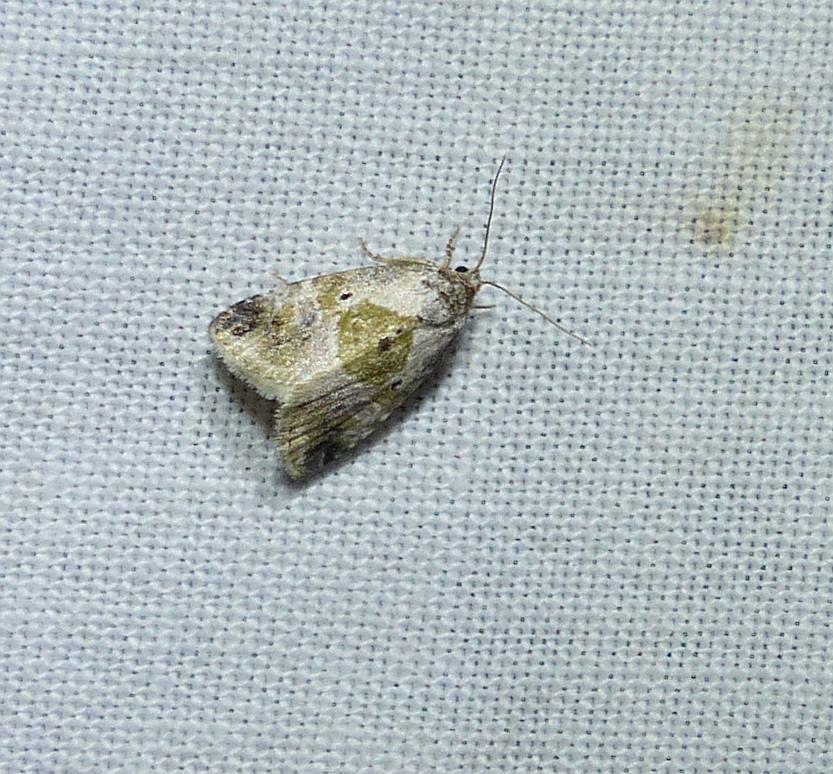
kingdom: Animalia
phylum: Arthropoda
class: Insecta
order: Lepidoptera
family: Noctuidae
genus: Maliattha
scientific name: Maliattha synochitis
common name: Black-dotted glyph
